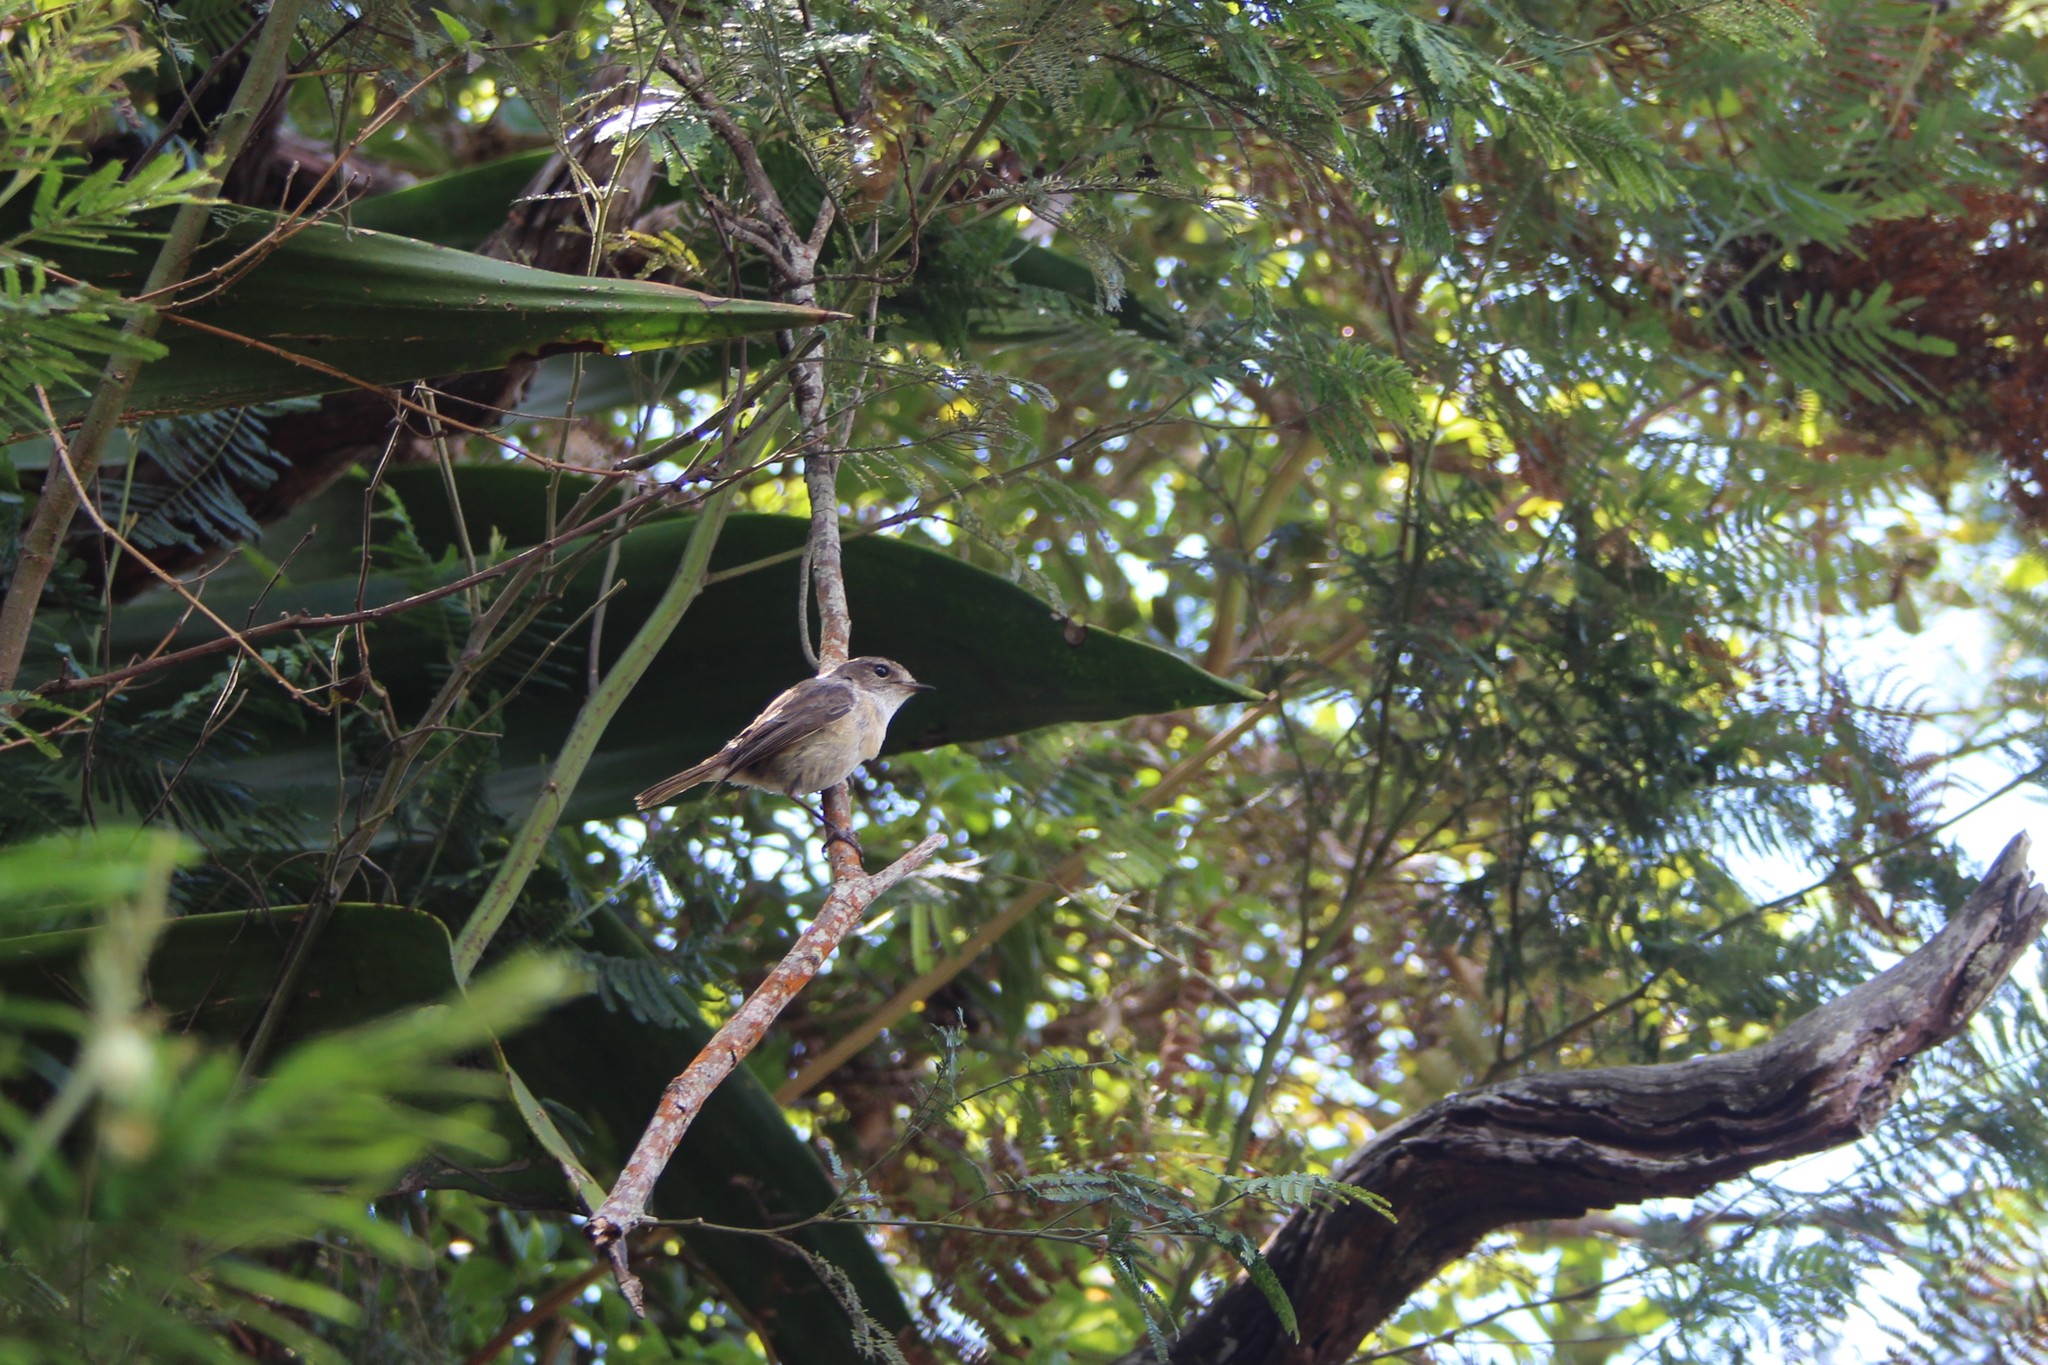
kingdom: Animalia
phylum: Chordata
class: Aves
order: Passeriformes
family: Muscicapidae
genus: Saxicola
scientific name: Saxicola tectes
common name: Reunion stonechat
